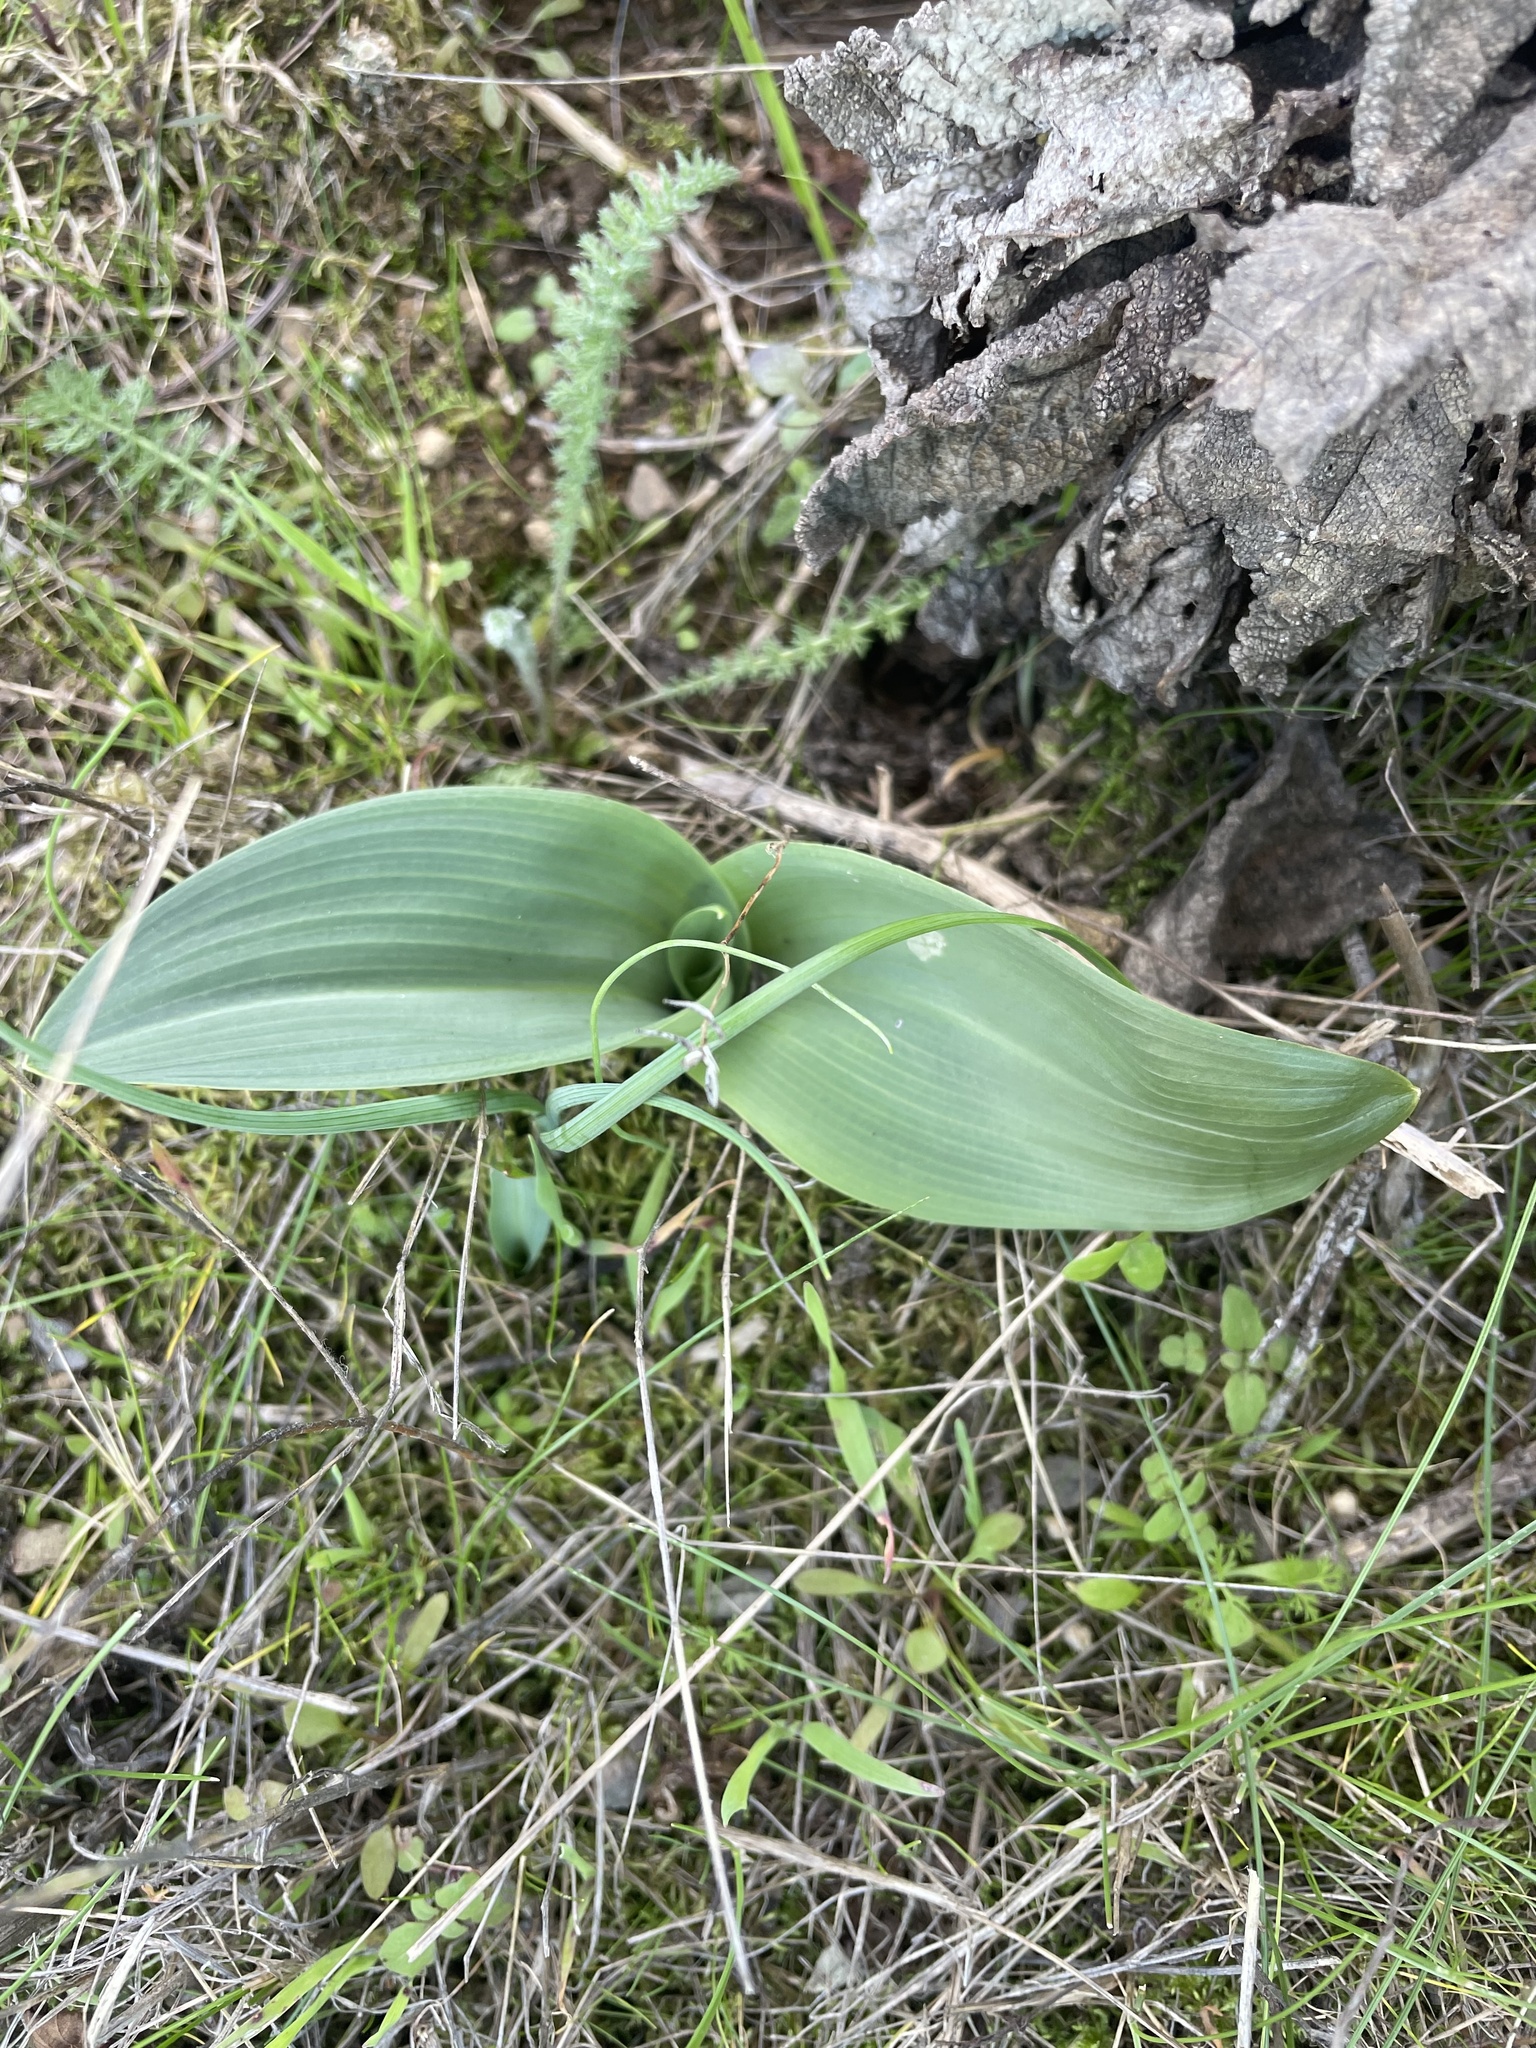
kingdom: Plantae
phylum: Tracheophyta
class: Liliopsida
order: Asparagales
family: Orchidaceae
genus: Platanthera
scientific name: Platanthera elegans
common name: Coast piperia
